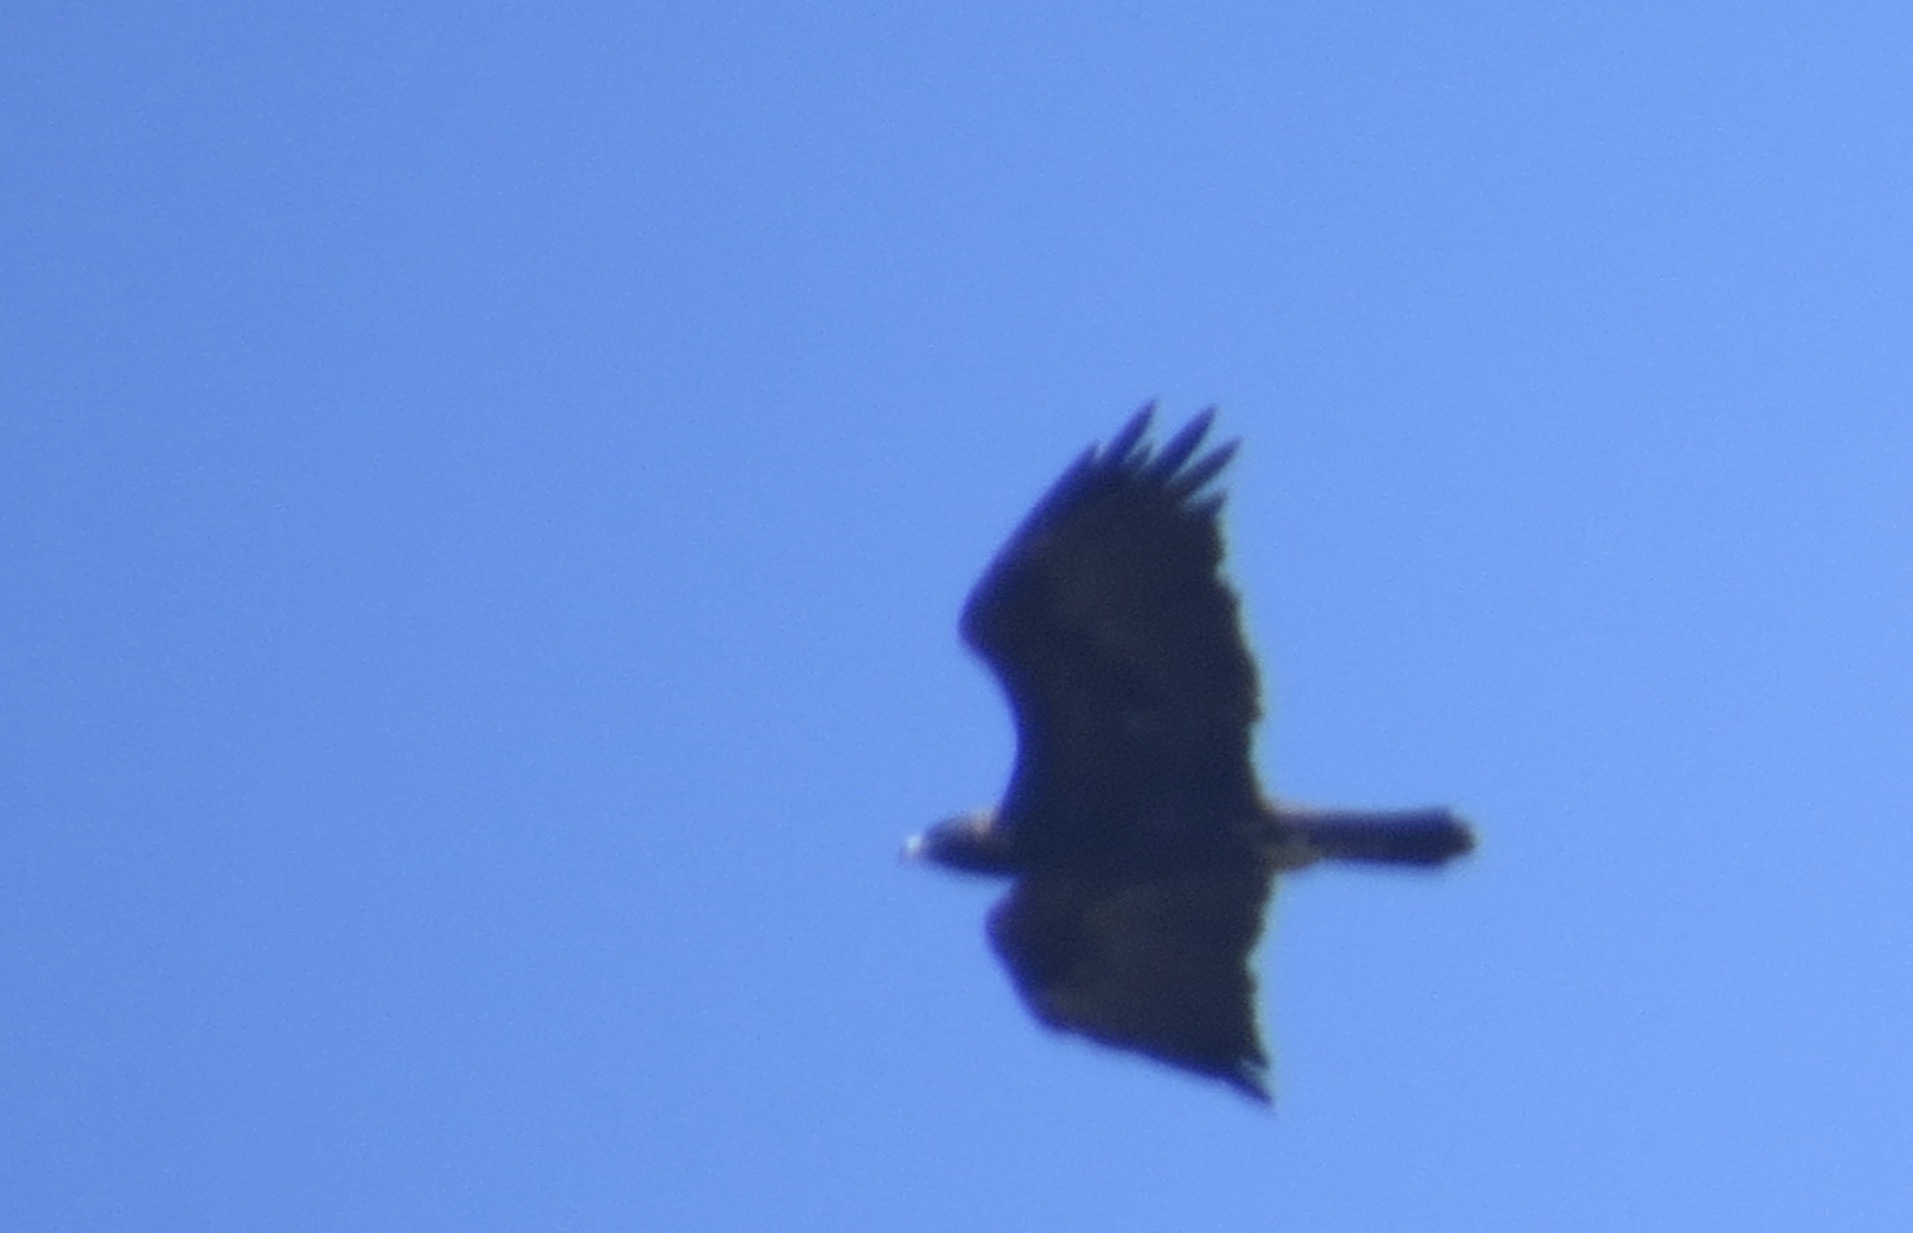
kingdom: Animalia
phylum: Chordata
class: Aves
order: Accipitriformes
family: Accipitridae
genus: Aquila
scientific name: Aquila chrysaetos
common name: Golden eagle
